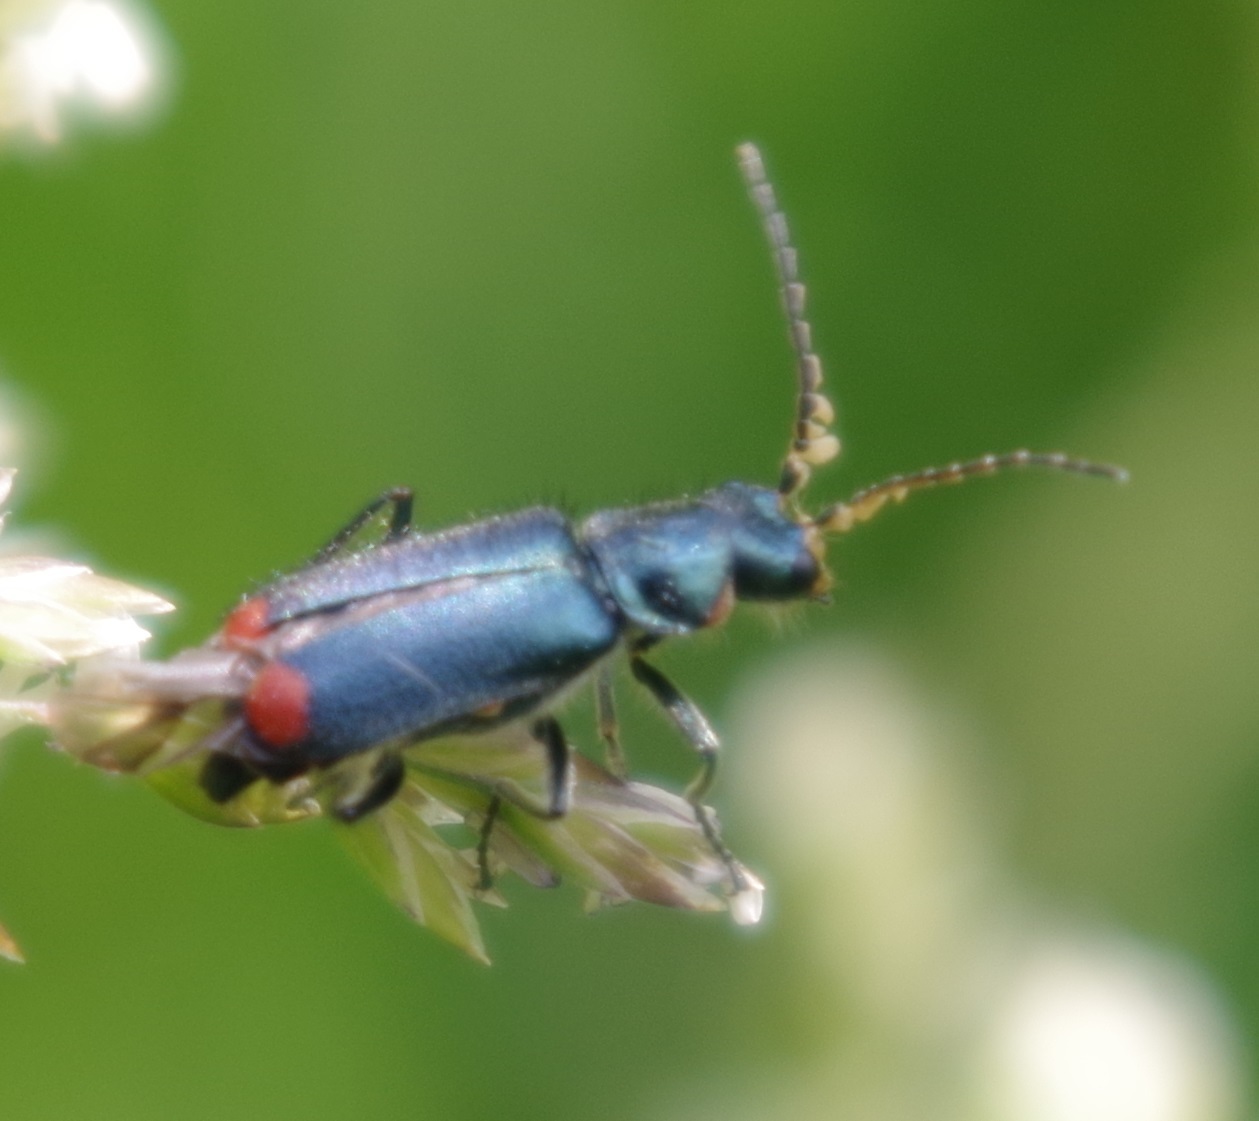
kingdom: Animalia
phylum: Arthropoda
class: Insecta
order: Coleoptera
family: Melyridae
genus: Malachius
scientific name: Malachius bipustulatus
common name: Malachite beetle
